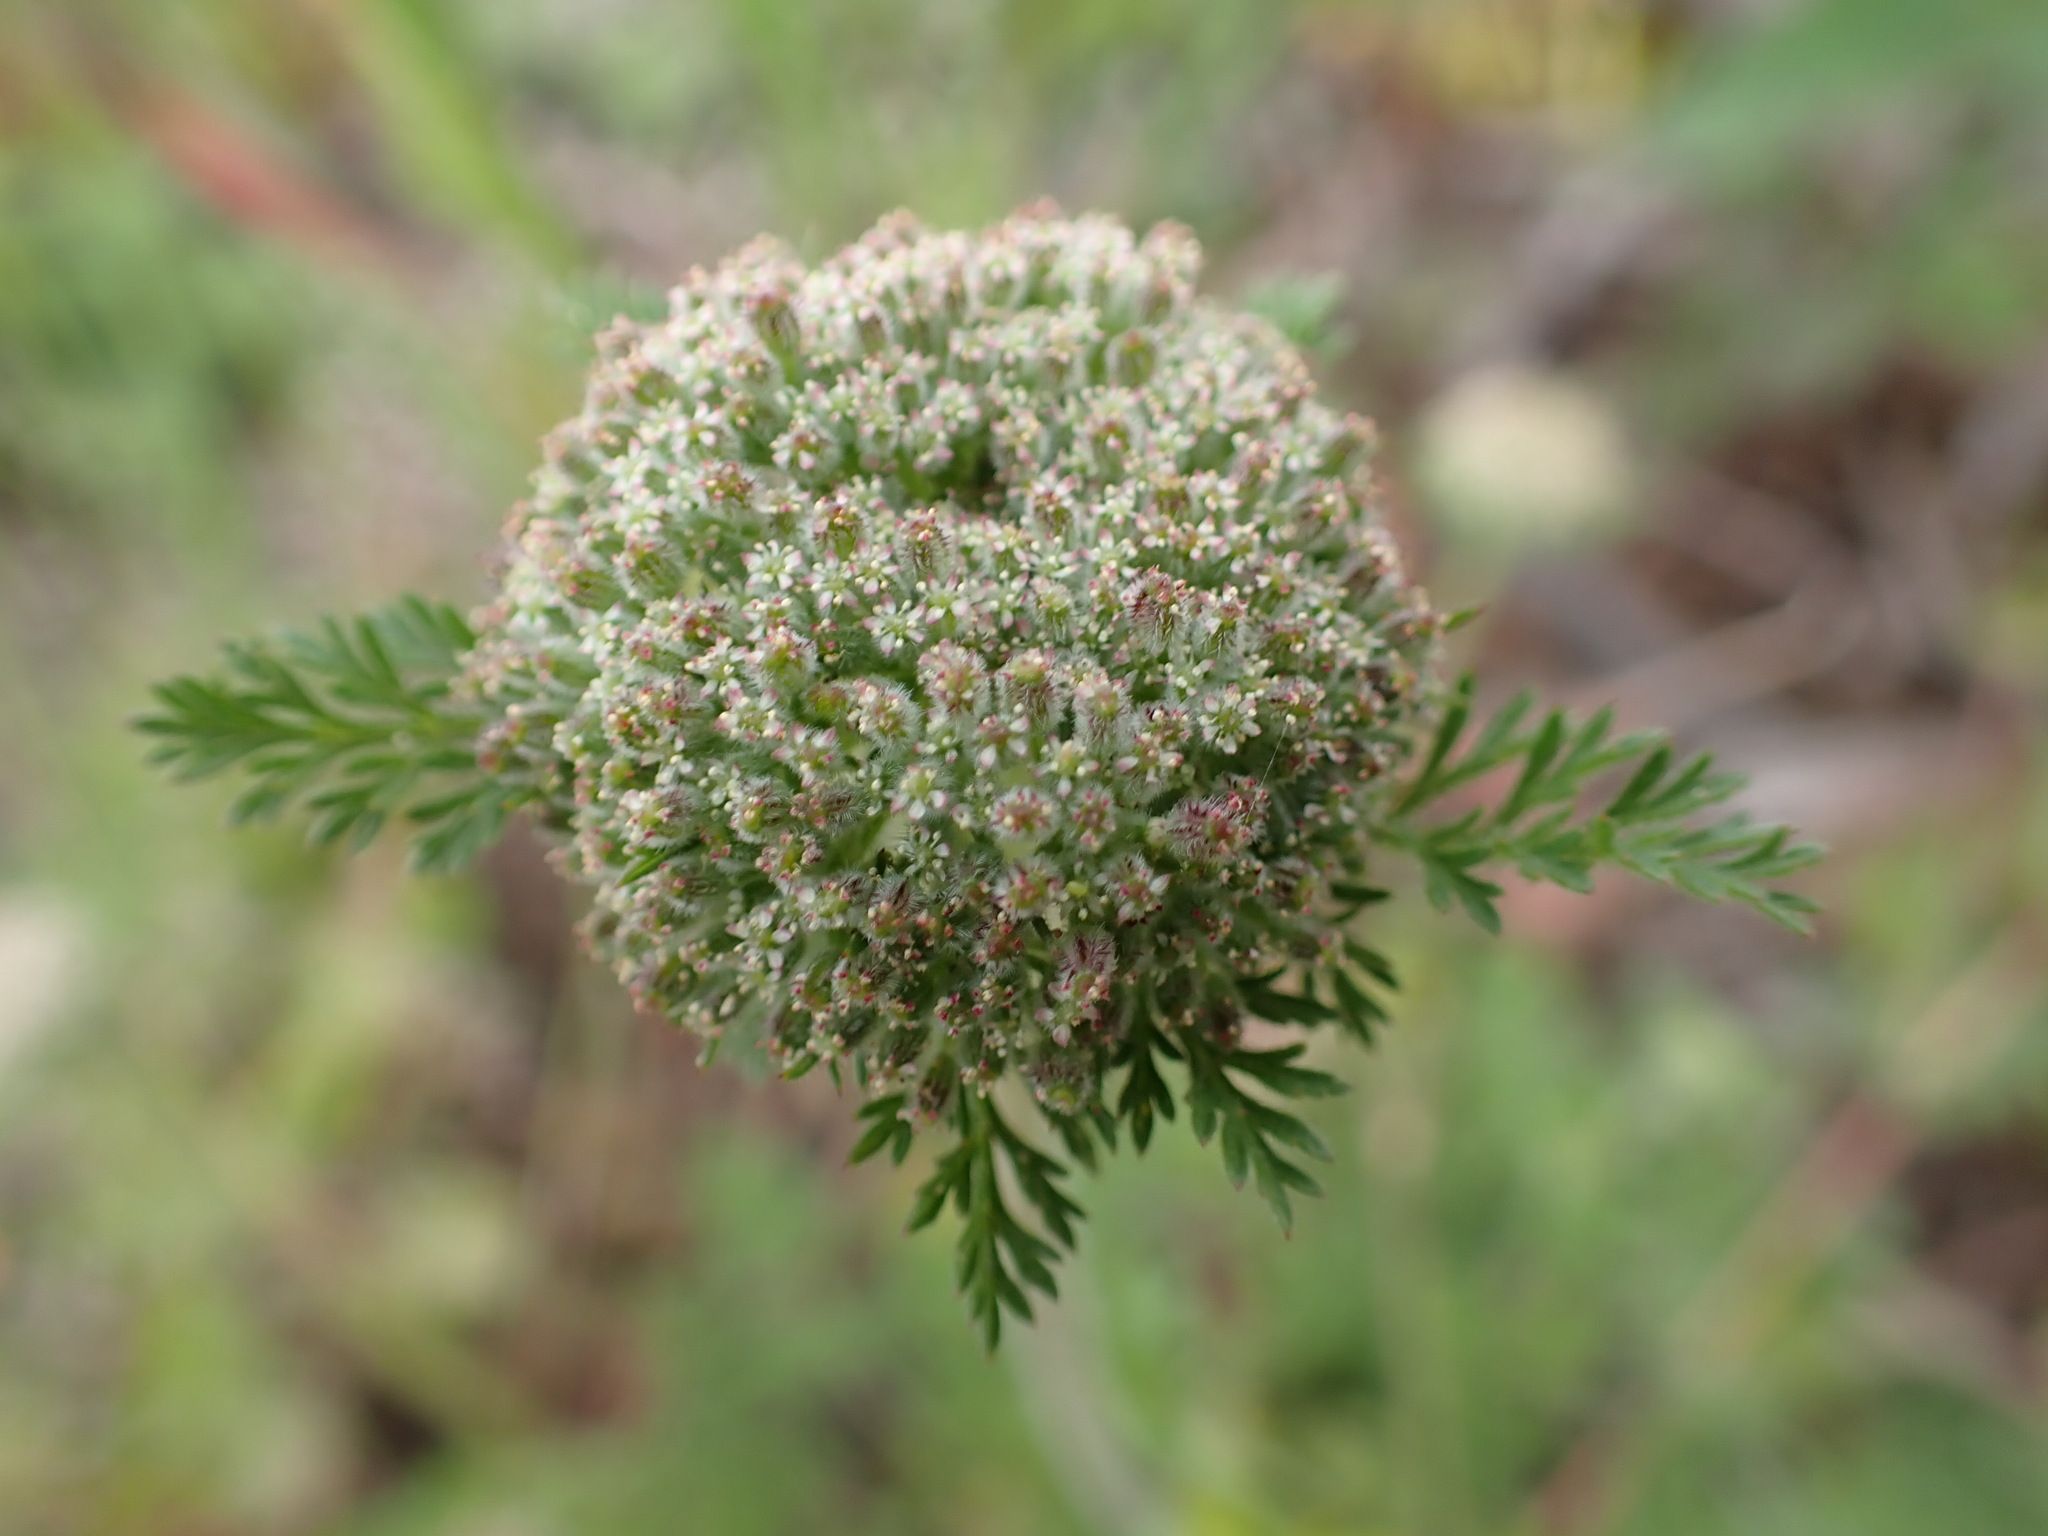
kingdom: Plantae
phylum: Tracheophyta
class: Magnoliopsida
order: Apiales
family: Apiaceae
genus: Daucus
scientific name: Daucus pusillus
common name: Southwest wild carrot
